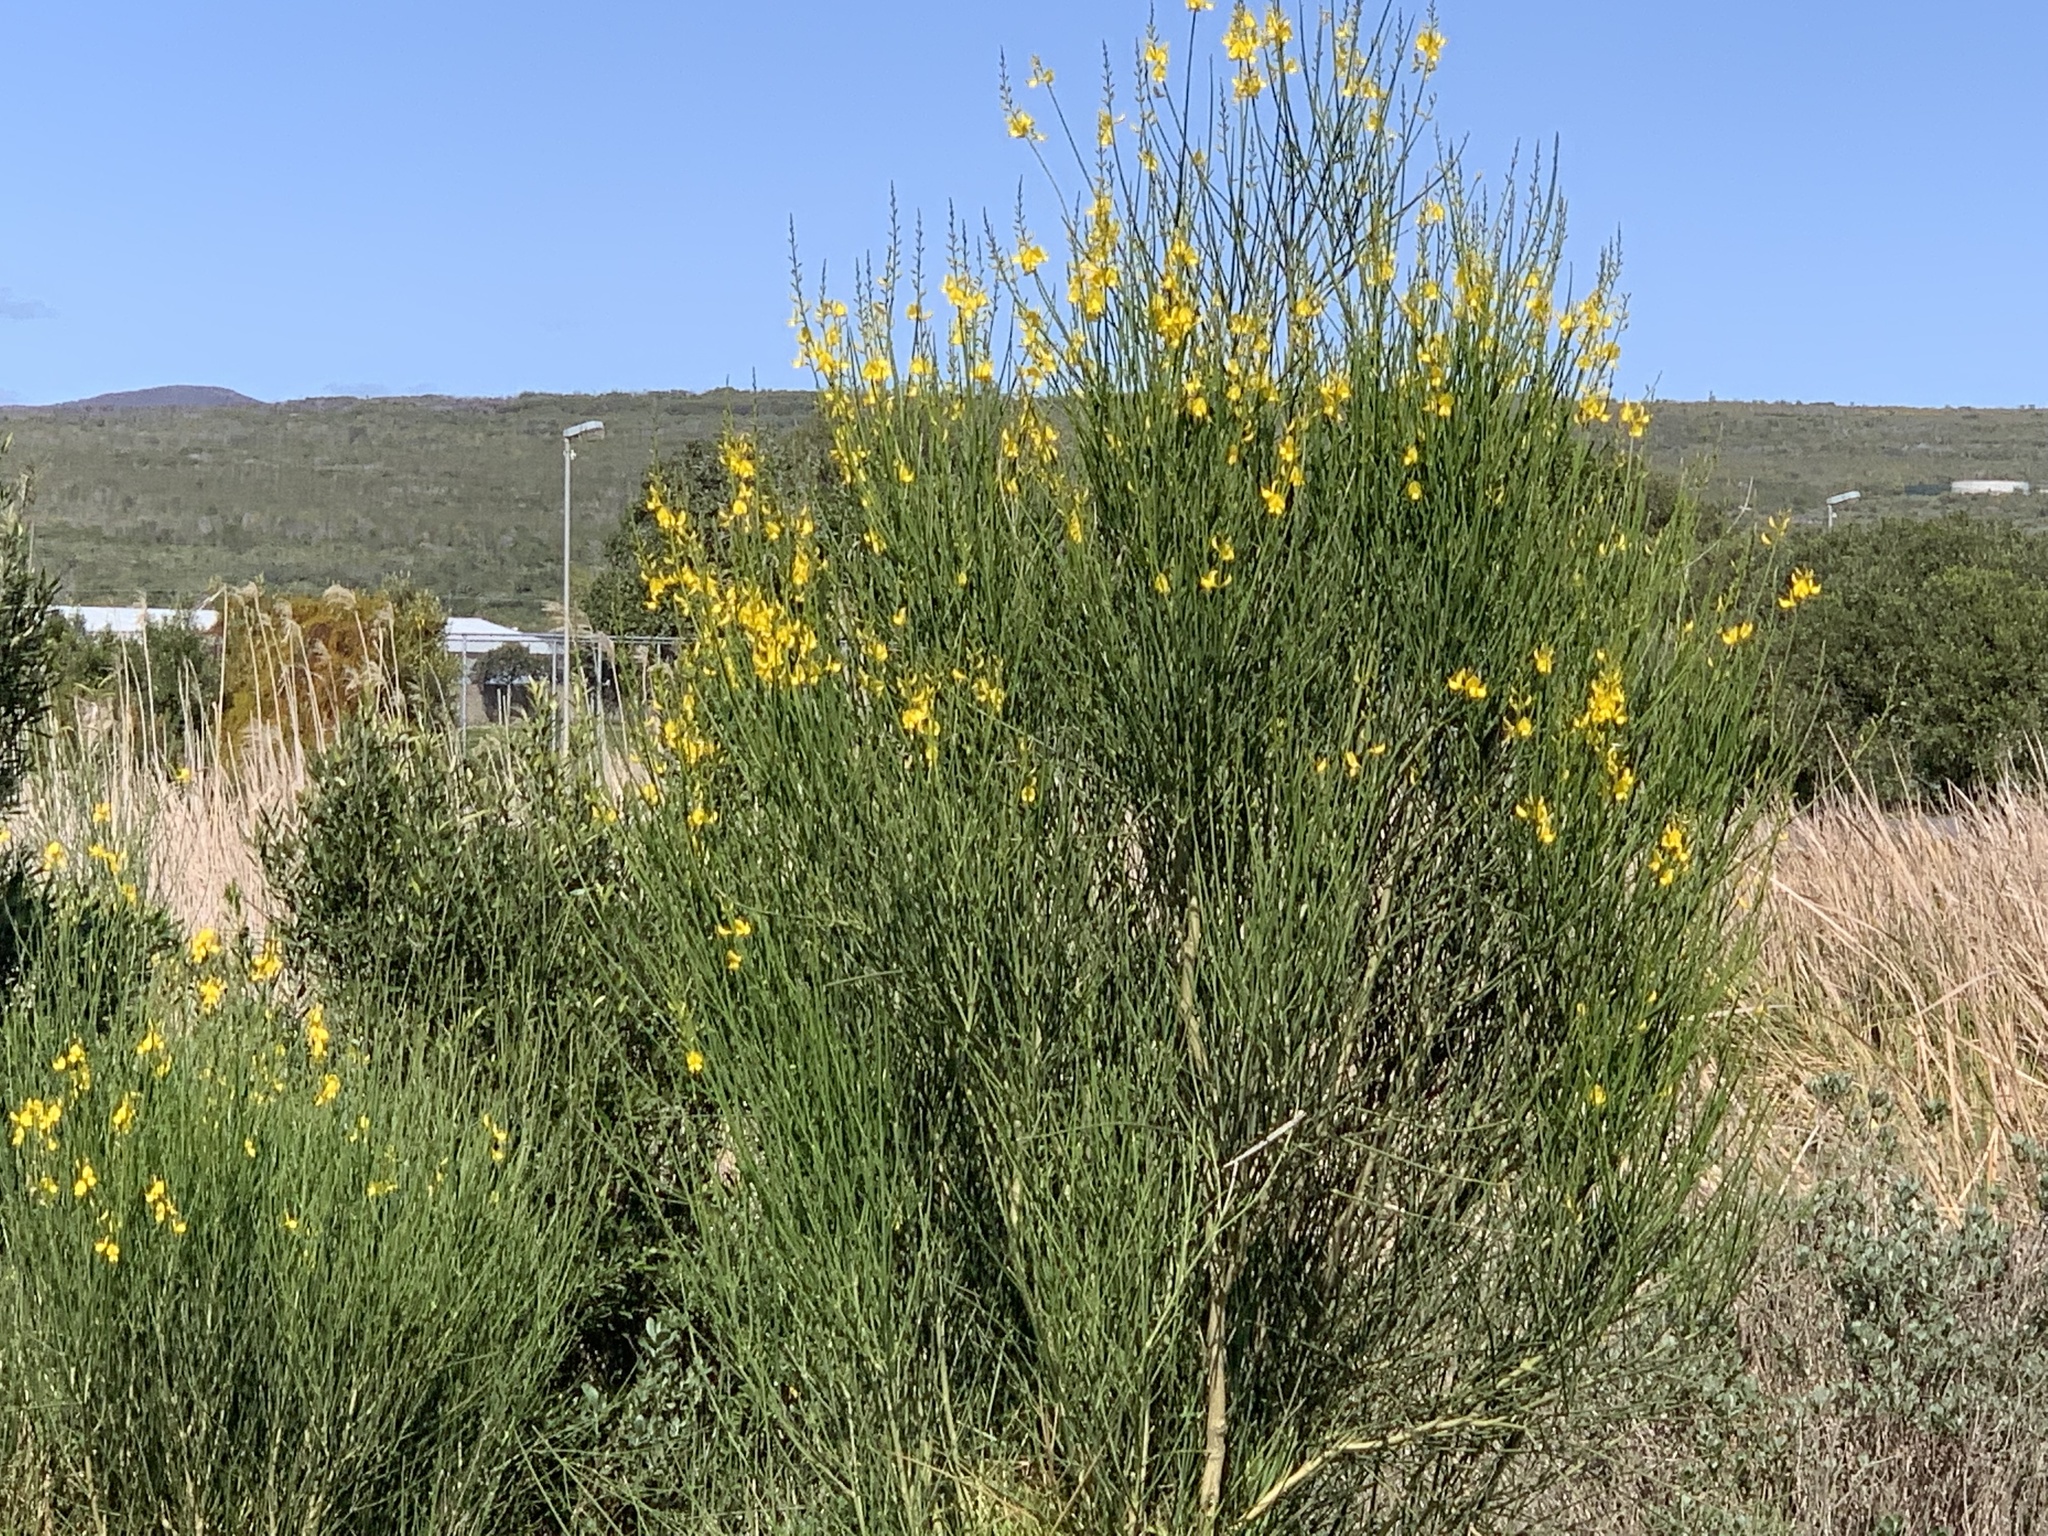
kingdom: Plantae
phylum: Tracheophyta
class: Magnoliopsida
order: Fabales
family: Fabaceae
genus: Spartium
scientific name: Spartium junceum
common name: Spanish broom
